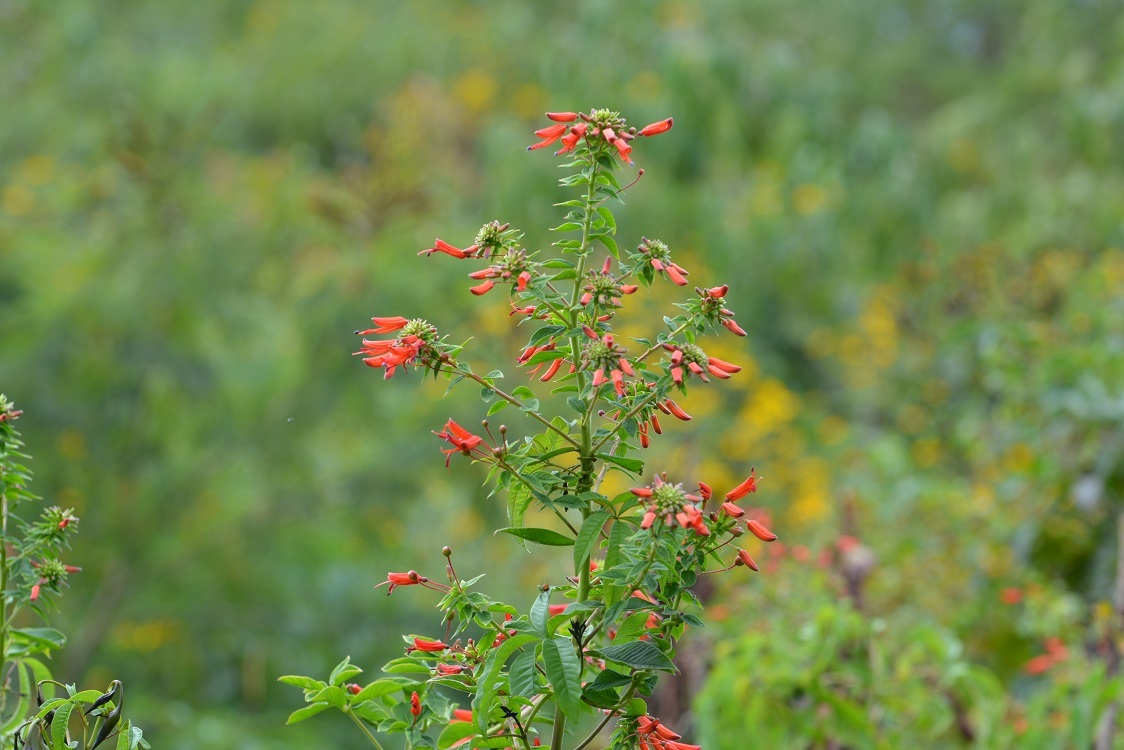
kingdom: Plantae
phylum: Tracheophyta
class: Magnoliopsida
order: Myrtales
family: Onagraceae
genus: Lopezia
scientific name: Lopezia grandiflora
